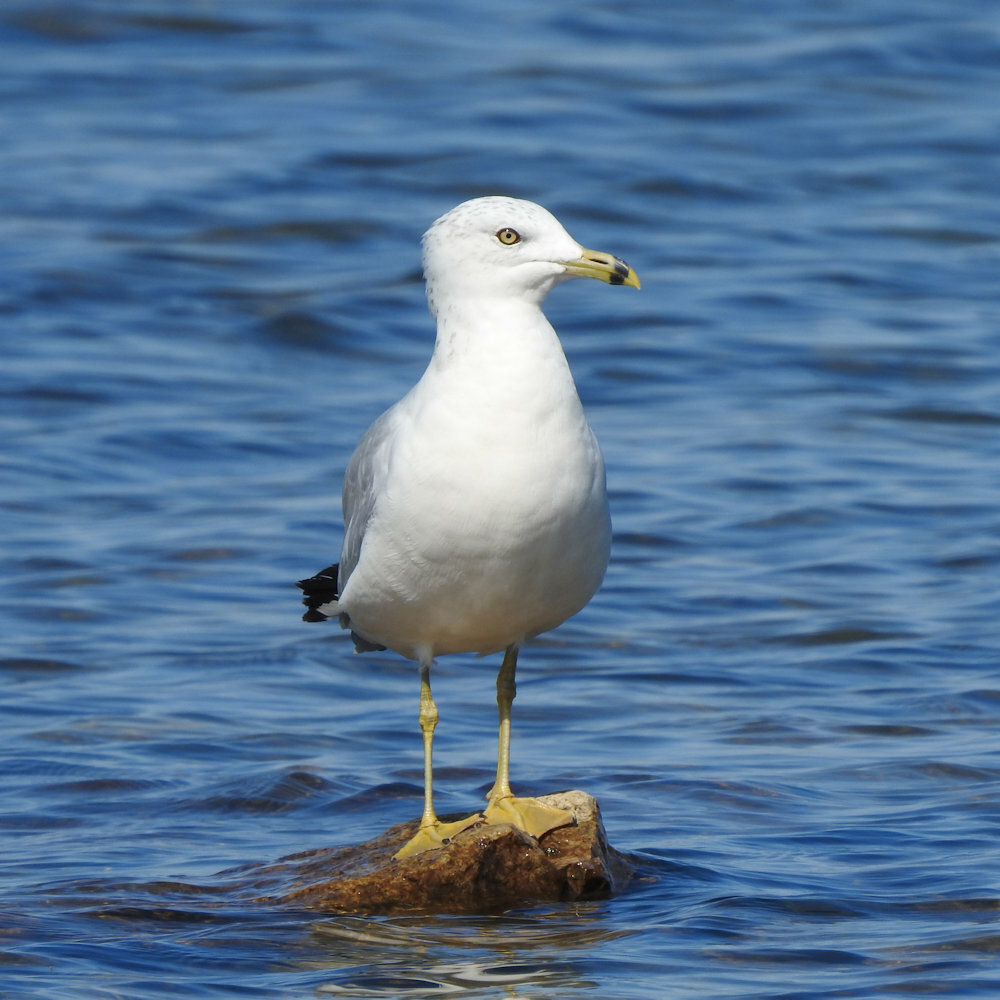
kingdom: Animalia
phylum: Chordata
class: Aves
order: Charadriiformes
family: Laridae
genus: Larus
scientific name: Larus delawarensis
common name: Ring-billed gull
